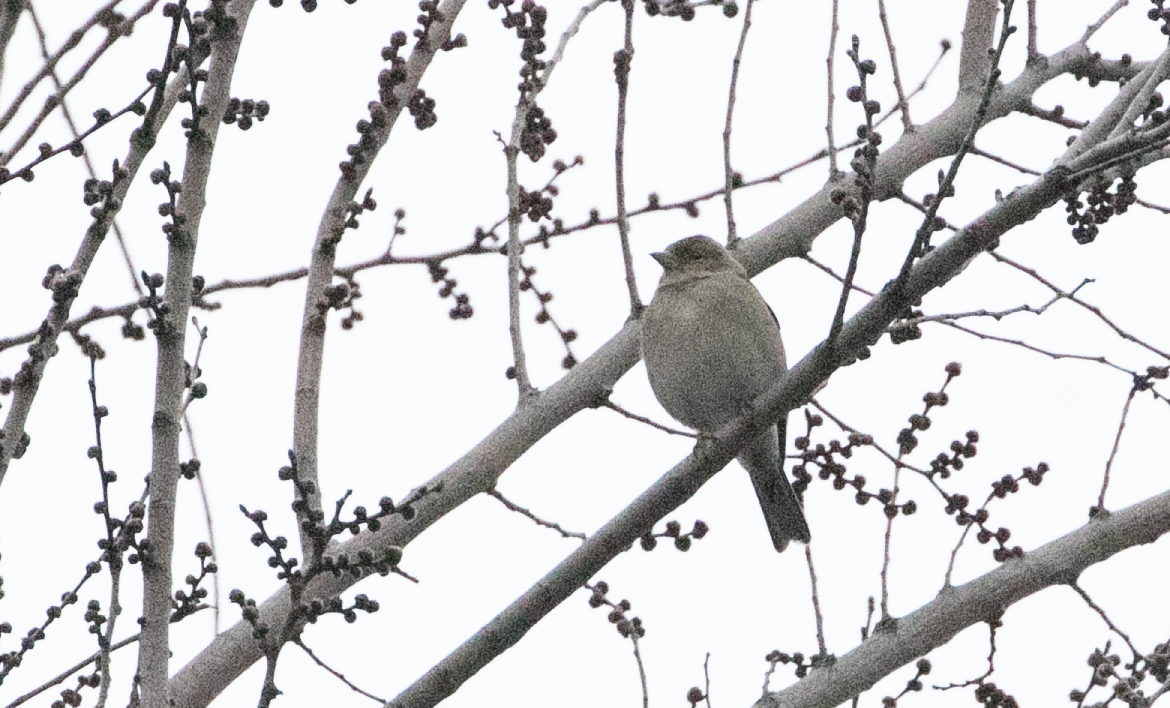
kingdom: Animalia
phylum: Chordata
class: Aves
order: Passeriformes
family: Fringillidae
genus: Fringilla
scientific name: Fringilla coelebs
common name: Common chaffinch
